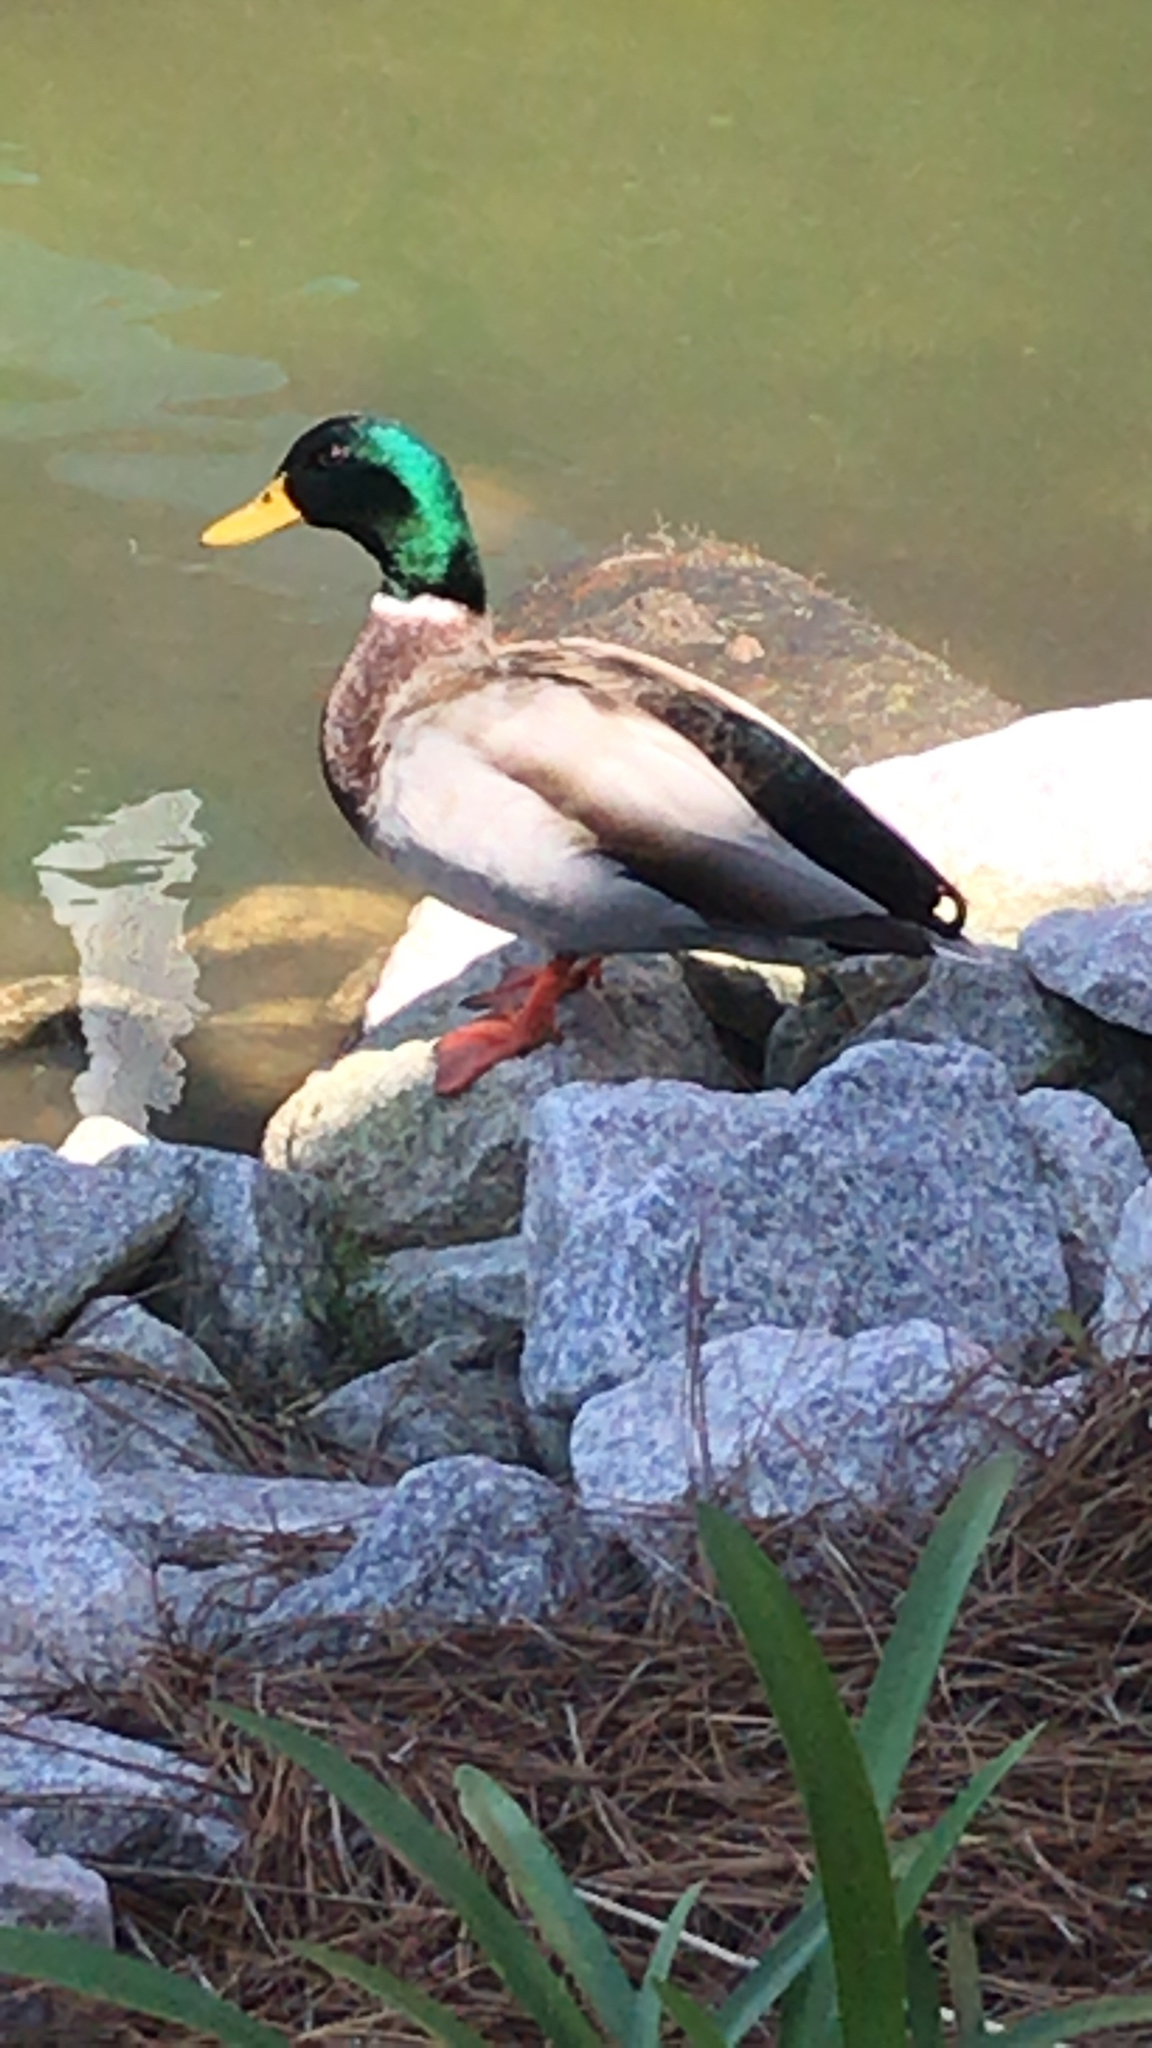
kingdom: Animalia
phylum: Chordata
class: Aves
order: Anseriformes
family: Anatidae
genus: Anas
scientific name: Anas platyrhynchos
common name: Mallard
